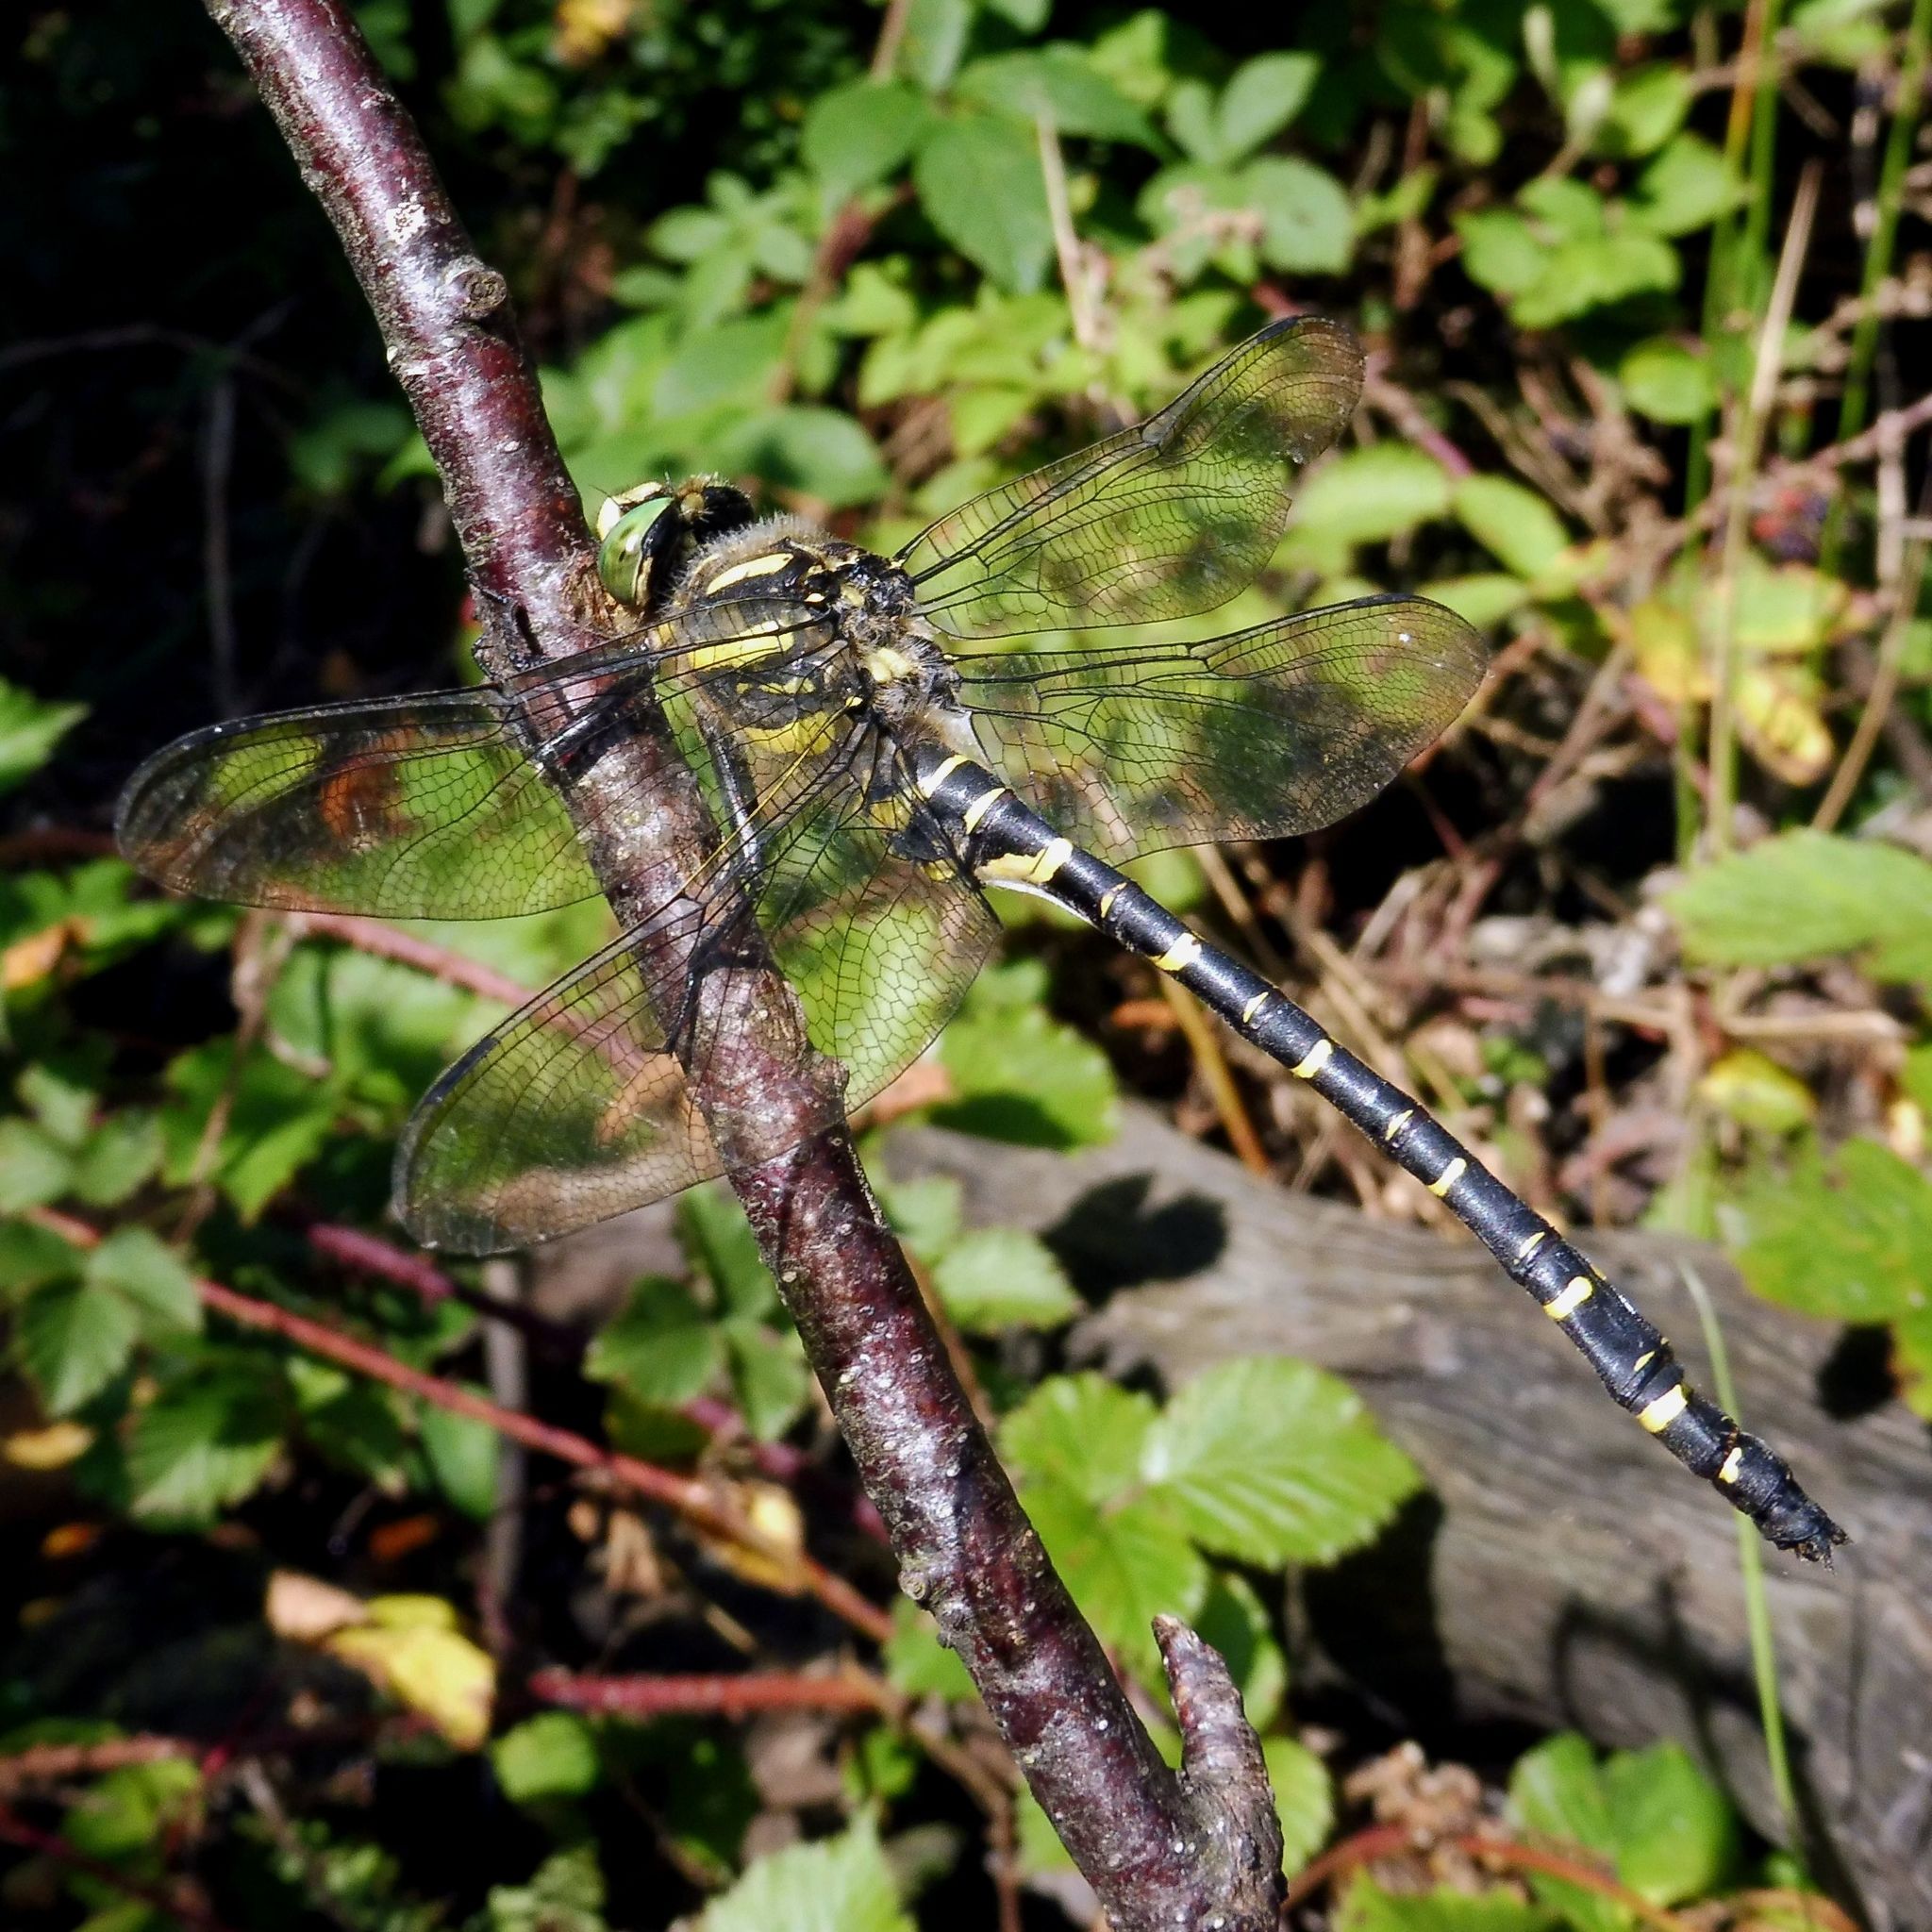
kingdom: Animalia
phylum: Arthropoda
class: Insecta
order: Odonata
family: Cordulegastridae
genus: Cordulegaster
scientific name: Cordulegaster boltonii
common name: Golden-ringed dragonfly
